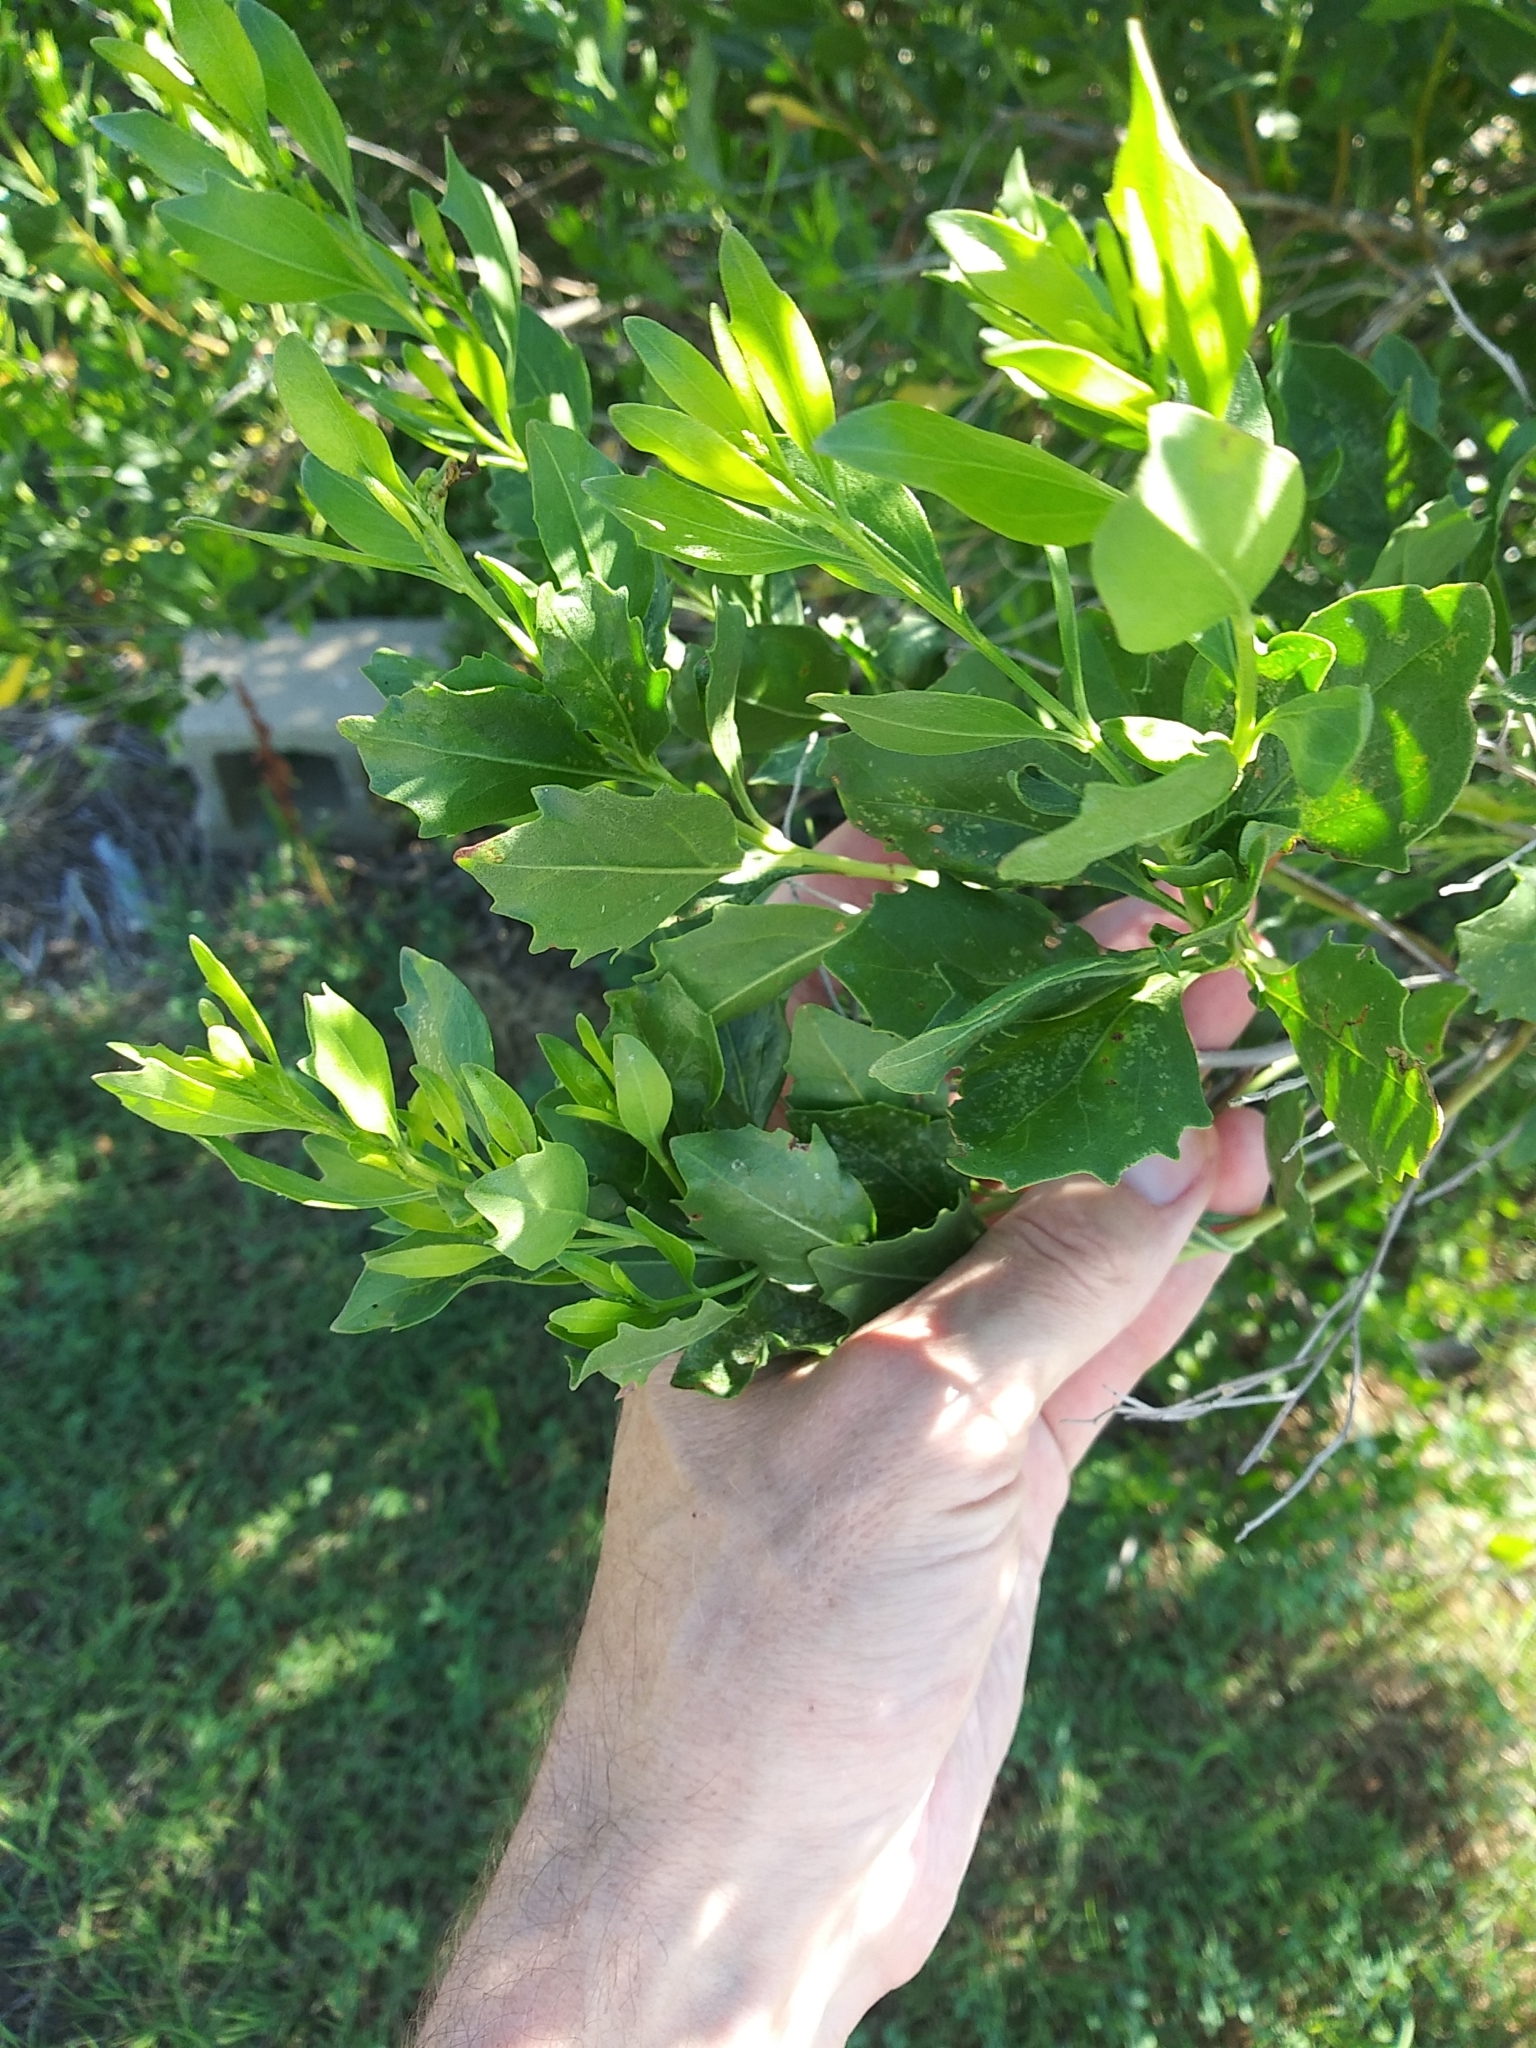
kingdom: Plantae
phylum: Tracheophyta
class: Magnoliopsida
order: Asterales
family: Asteraceae
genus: Baccharis
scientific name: Baccharis halimifolia
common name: Eastern baccharis
